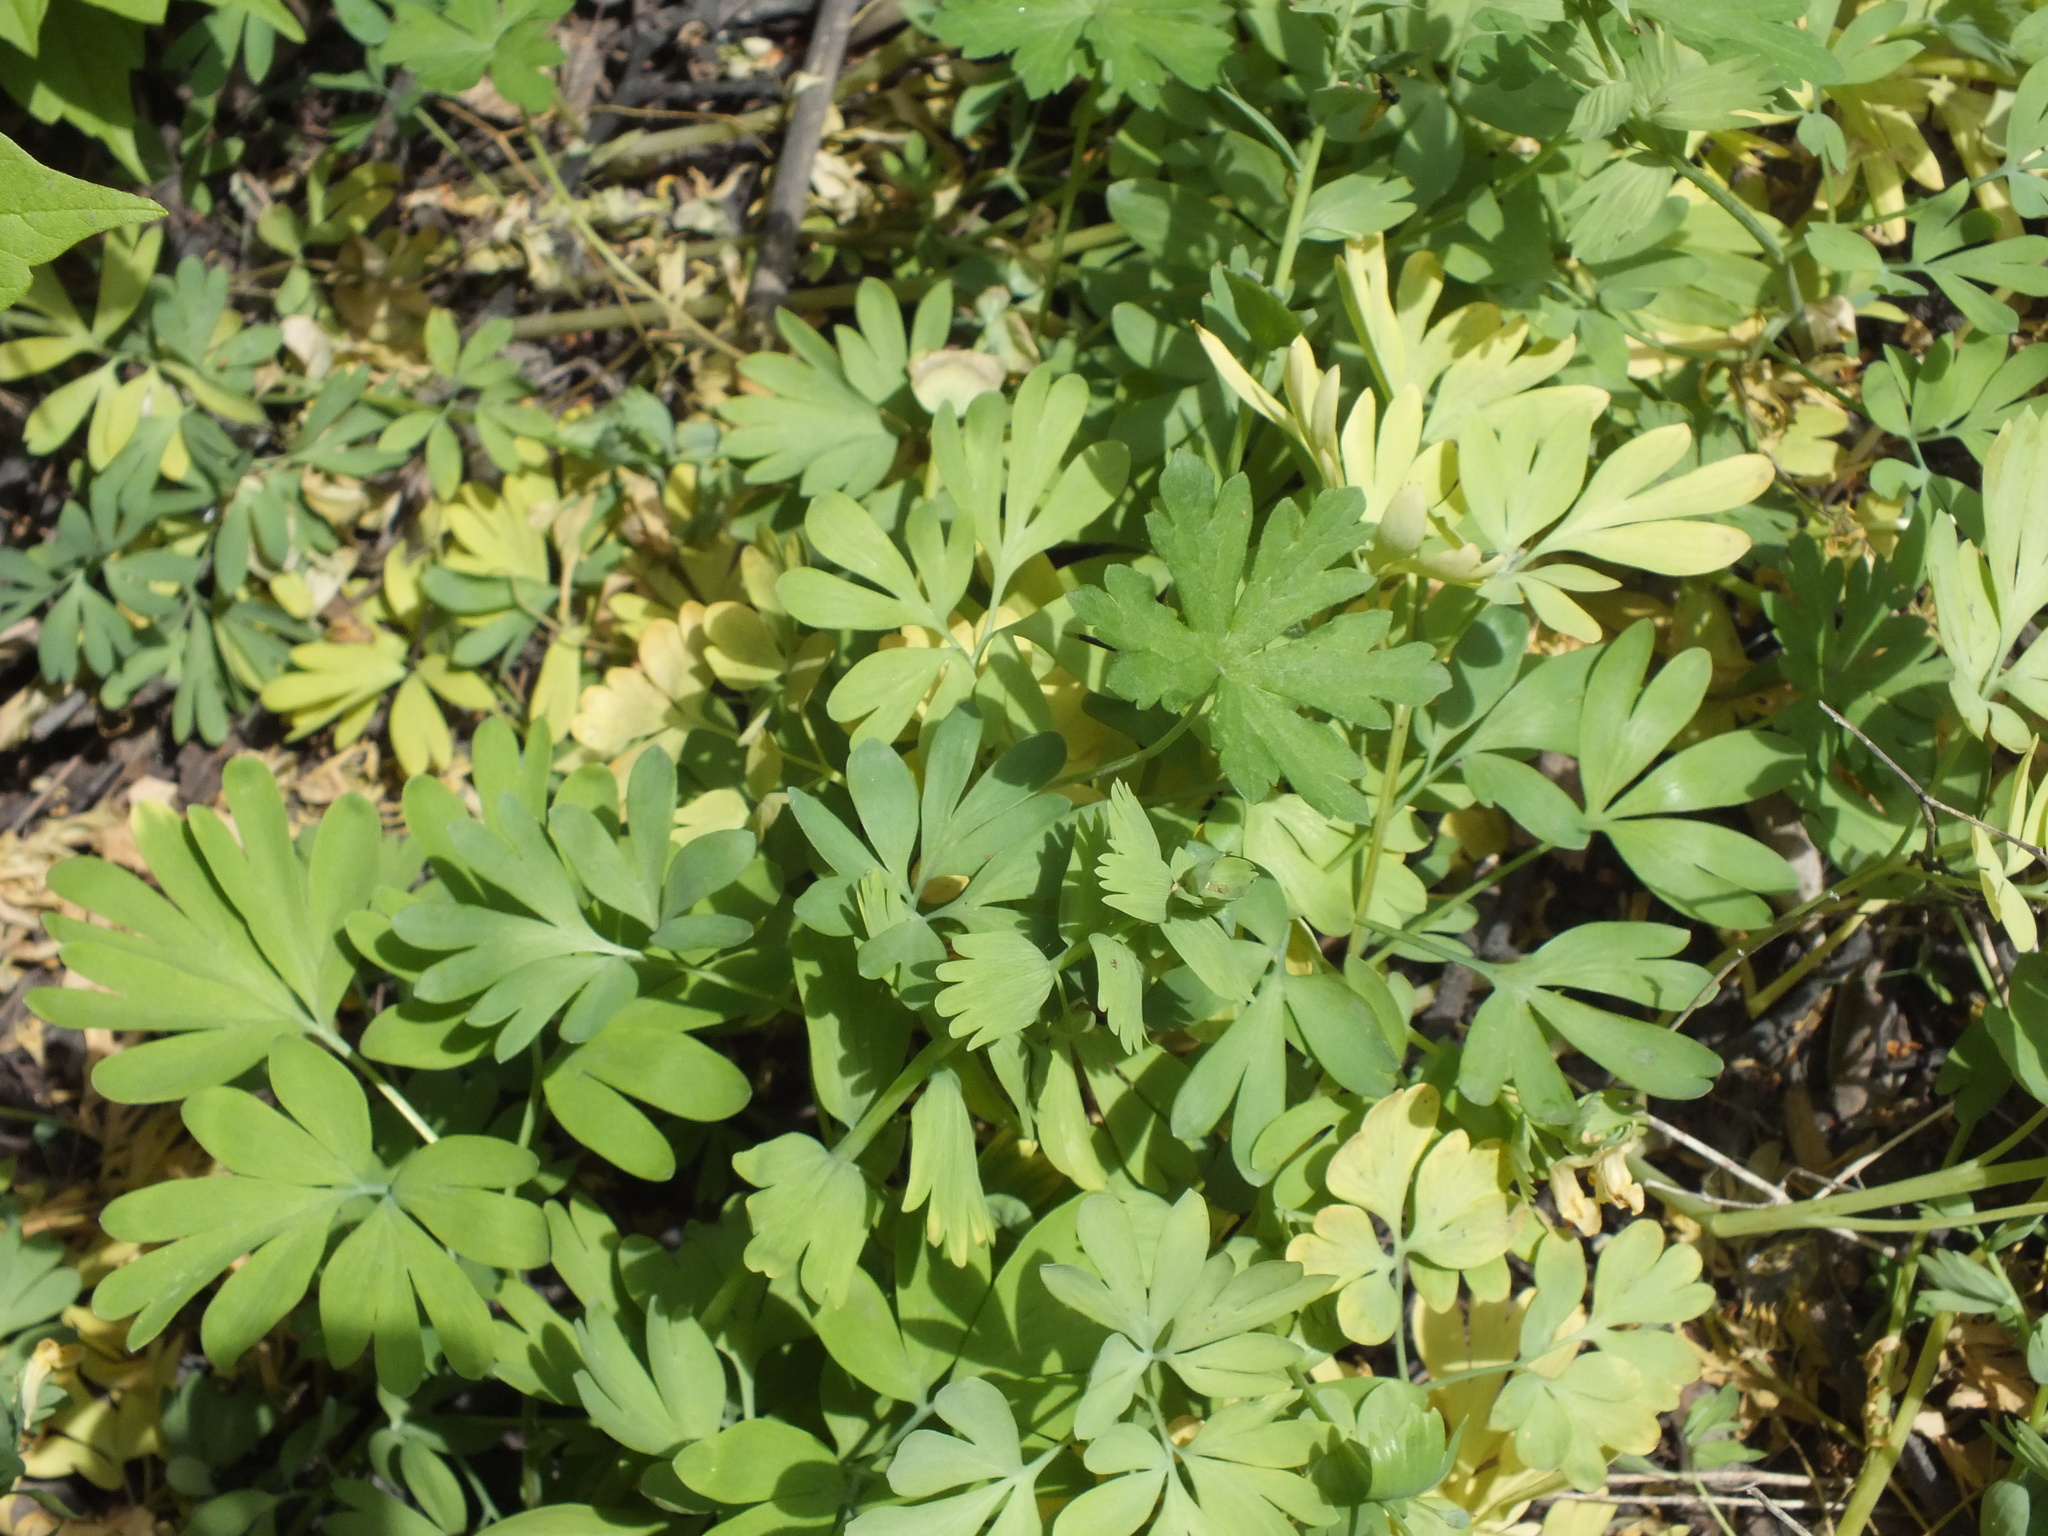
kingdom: Plantae
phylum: Tracheophyta
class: Magnoliopsida
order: Ranunculales
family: Papaveraceae
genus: Corydalis
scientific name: Corydalis bracteata
